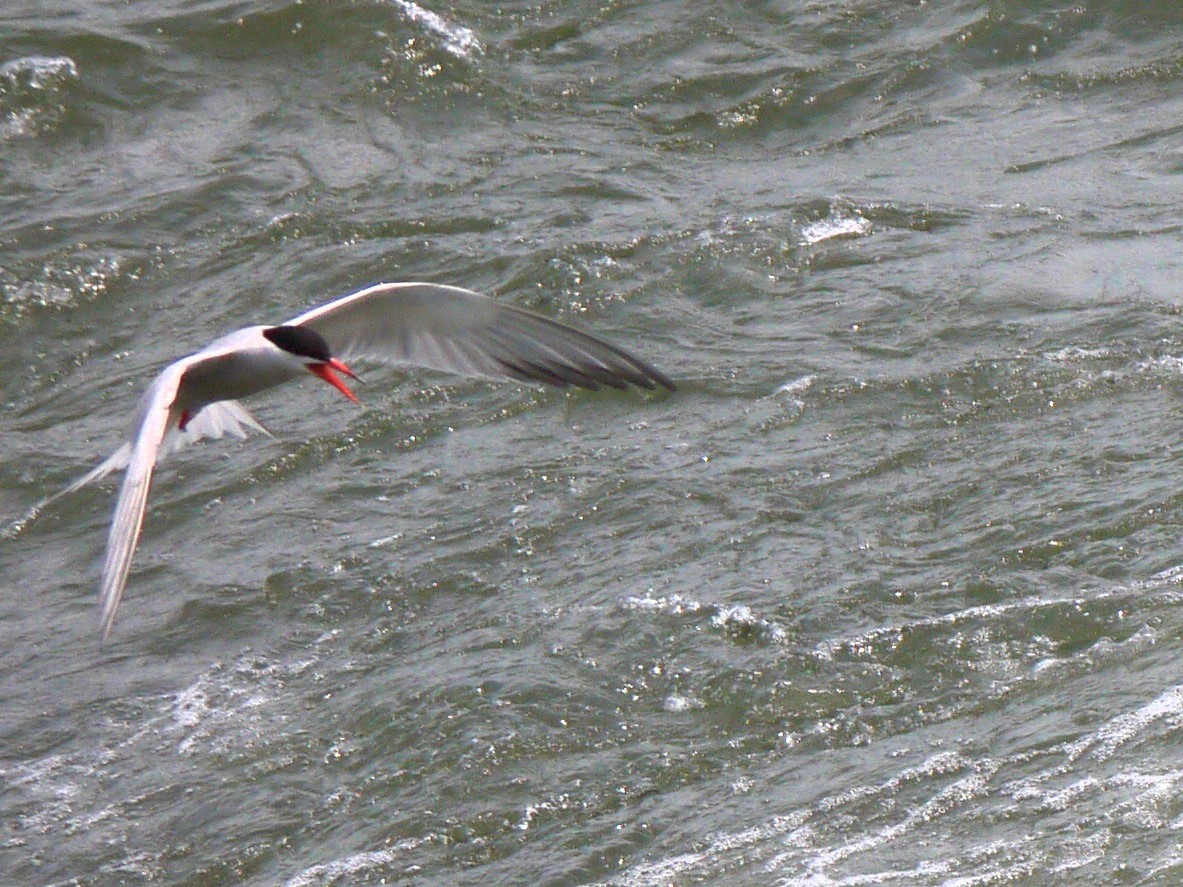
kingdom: Animalia
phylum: Chordata
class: Aves
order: Charadriiformes
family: Laridae
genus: Sterna
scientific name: Sterna hirundo
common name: Common tern
